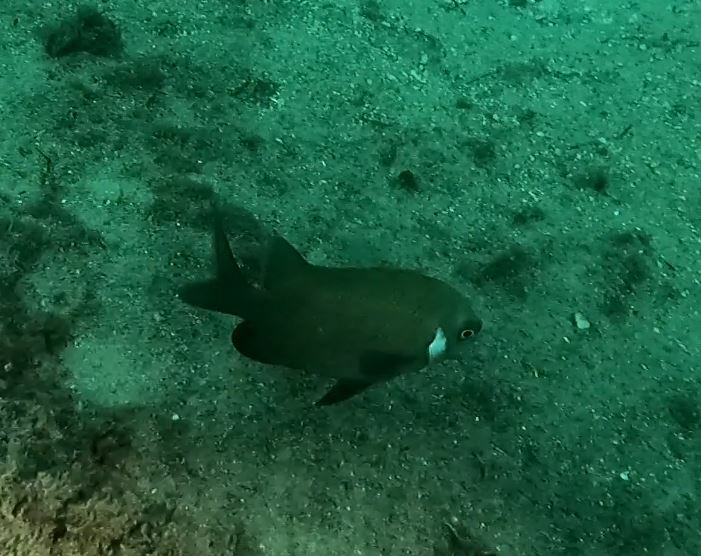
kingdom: Animalia
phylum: Chordata
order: Perciformes
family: Pomacentridae
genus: Parma
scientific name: Parma microlepis
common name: White-ear
